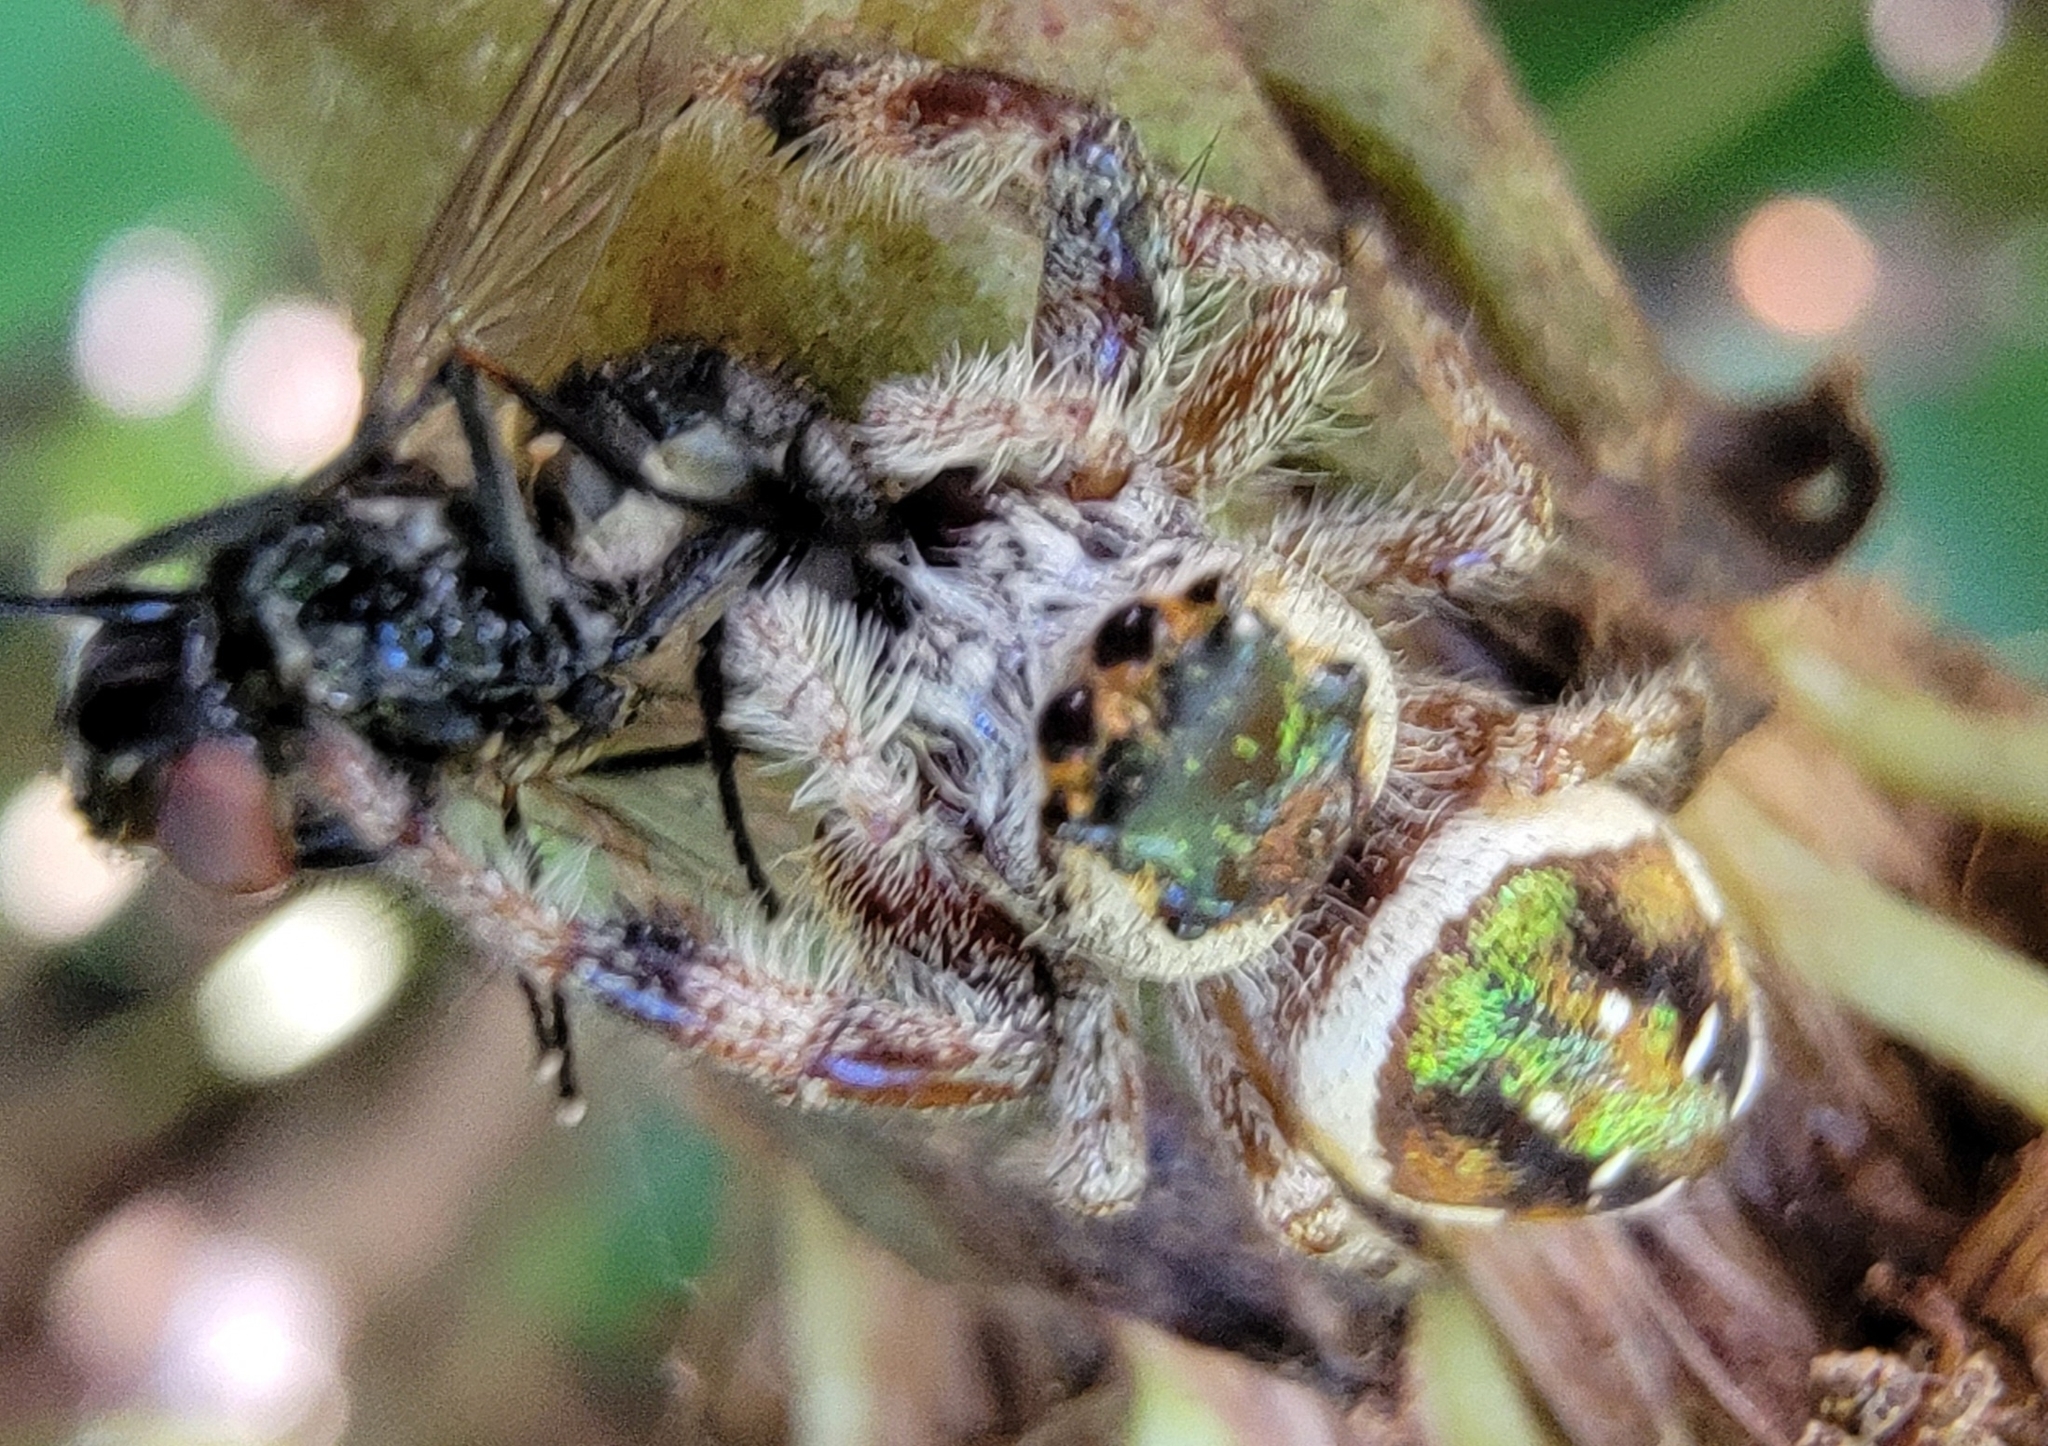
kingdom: Animalia
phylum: Arthropoda
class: Arachnida
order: Araneae
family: Salticidae
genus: Paraphidippus
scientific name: Paraphidippus aurantius
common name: Jumping spiders
